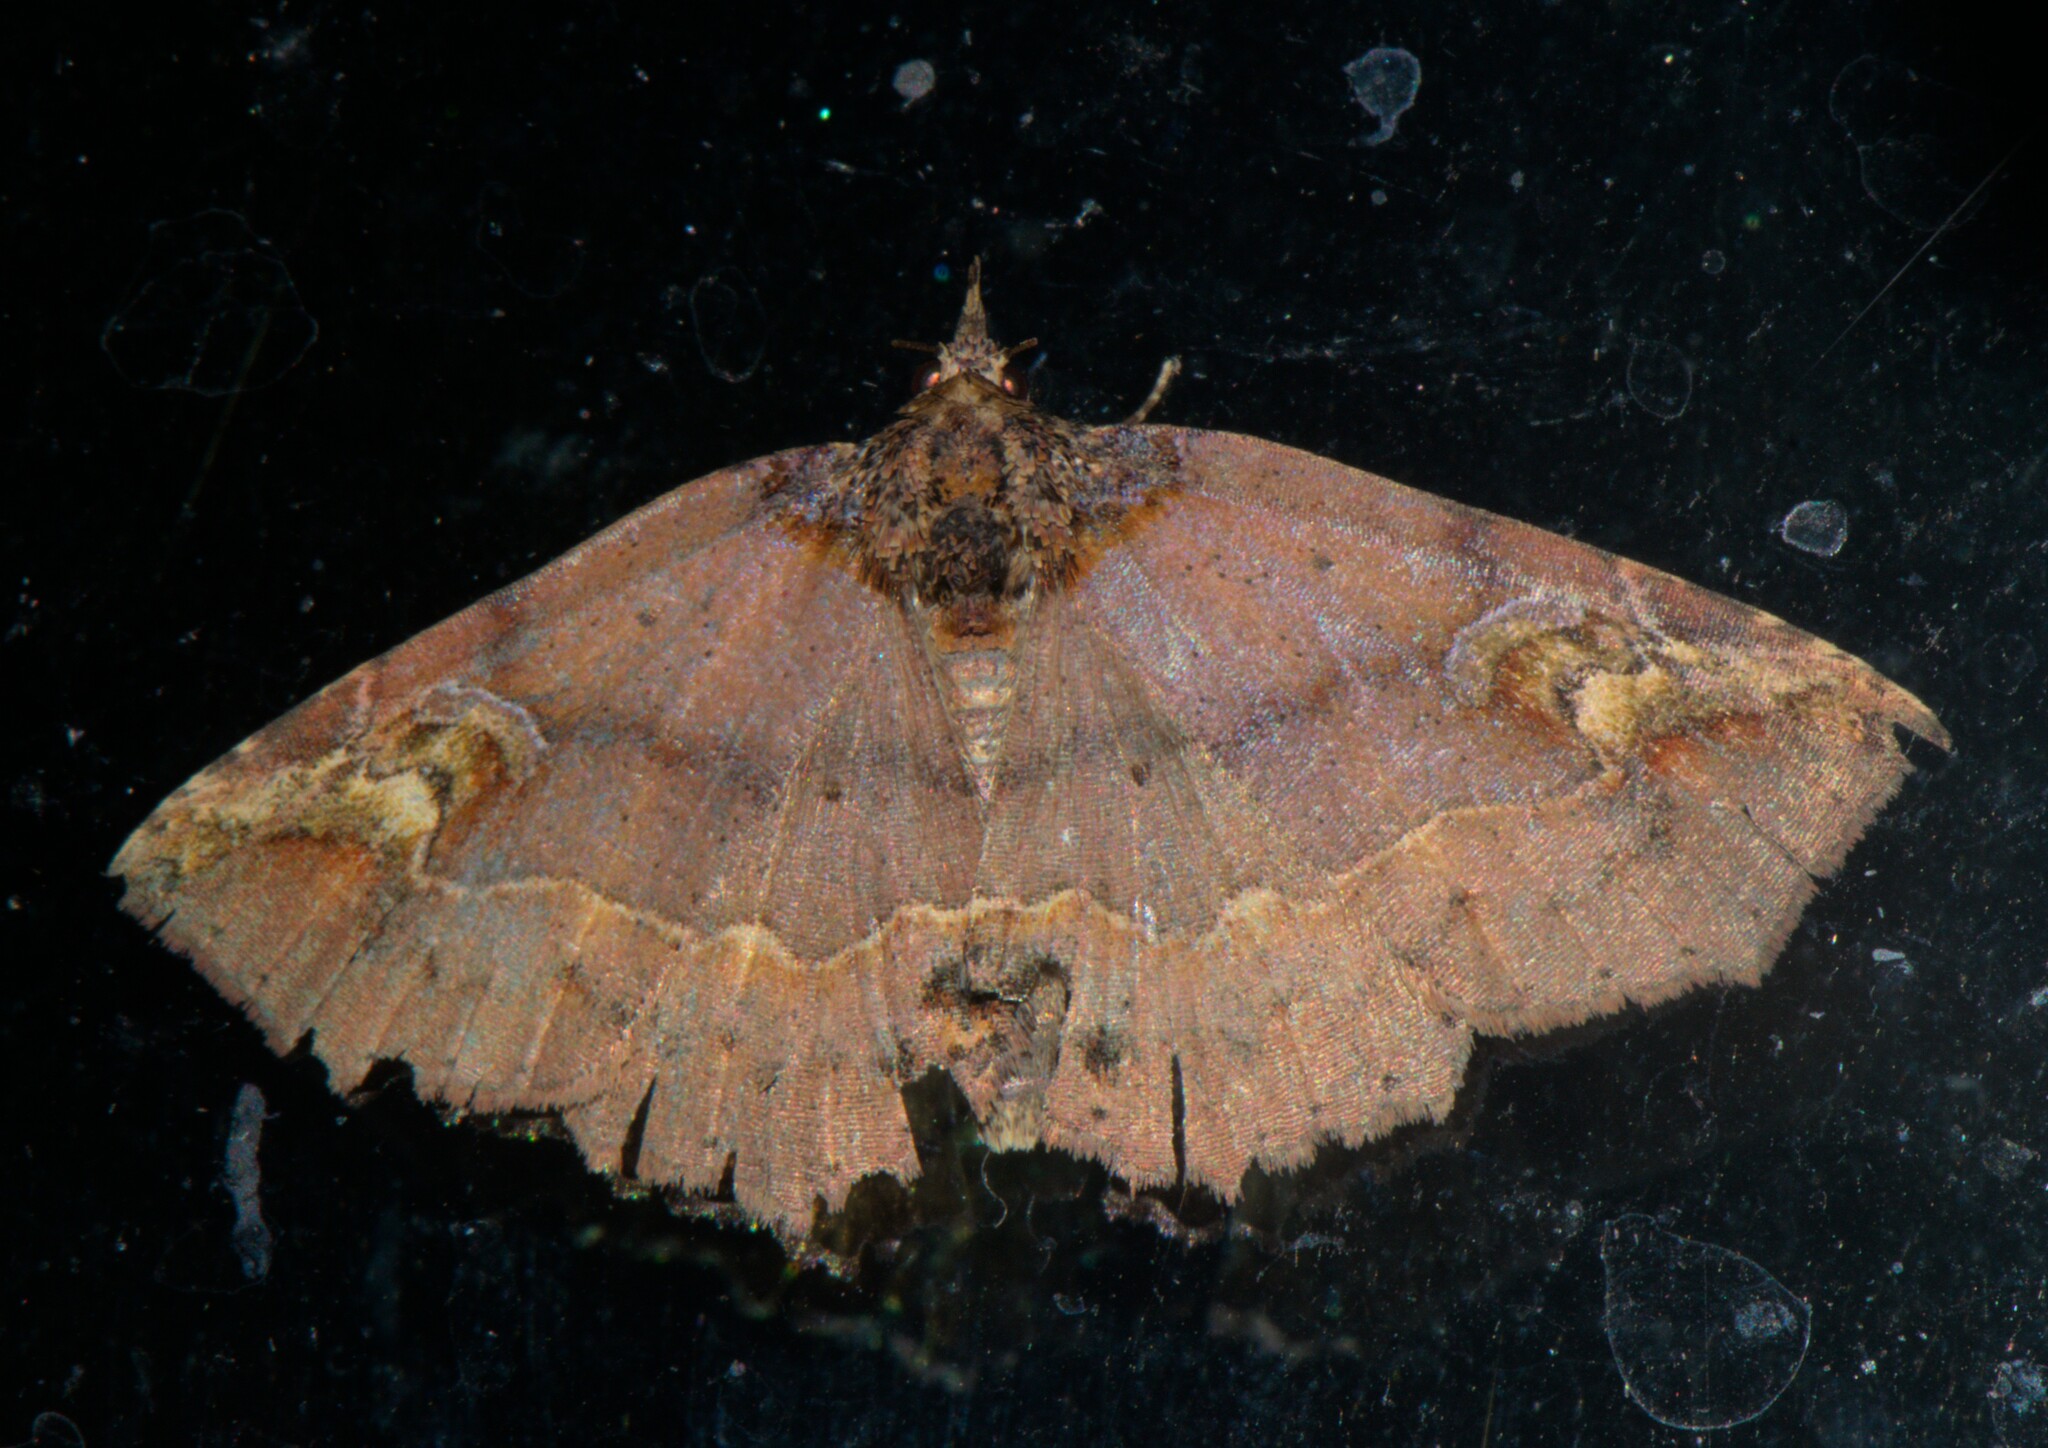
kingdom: Animalia
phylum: Arthropoda
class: Insecta
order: Lepidoptera
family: Erebidae
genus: Eugrapta
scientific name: Eugrapta venusta
